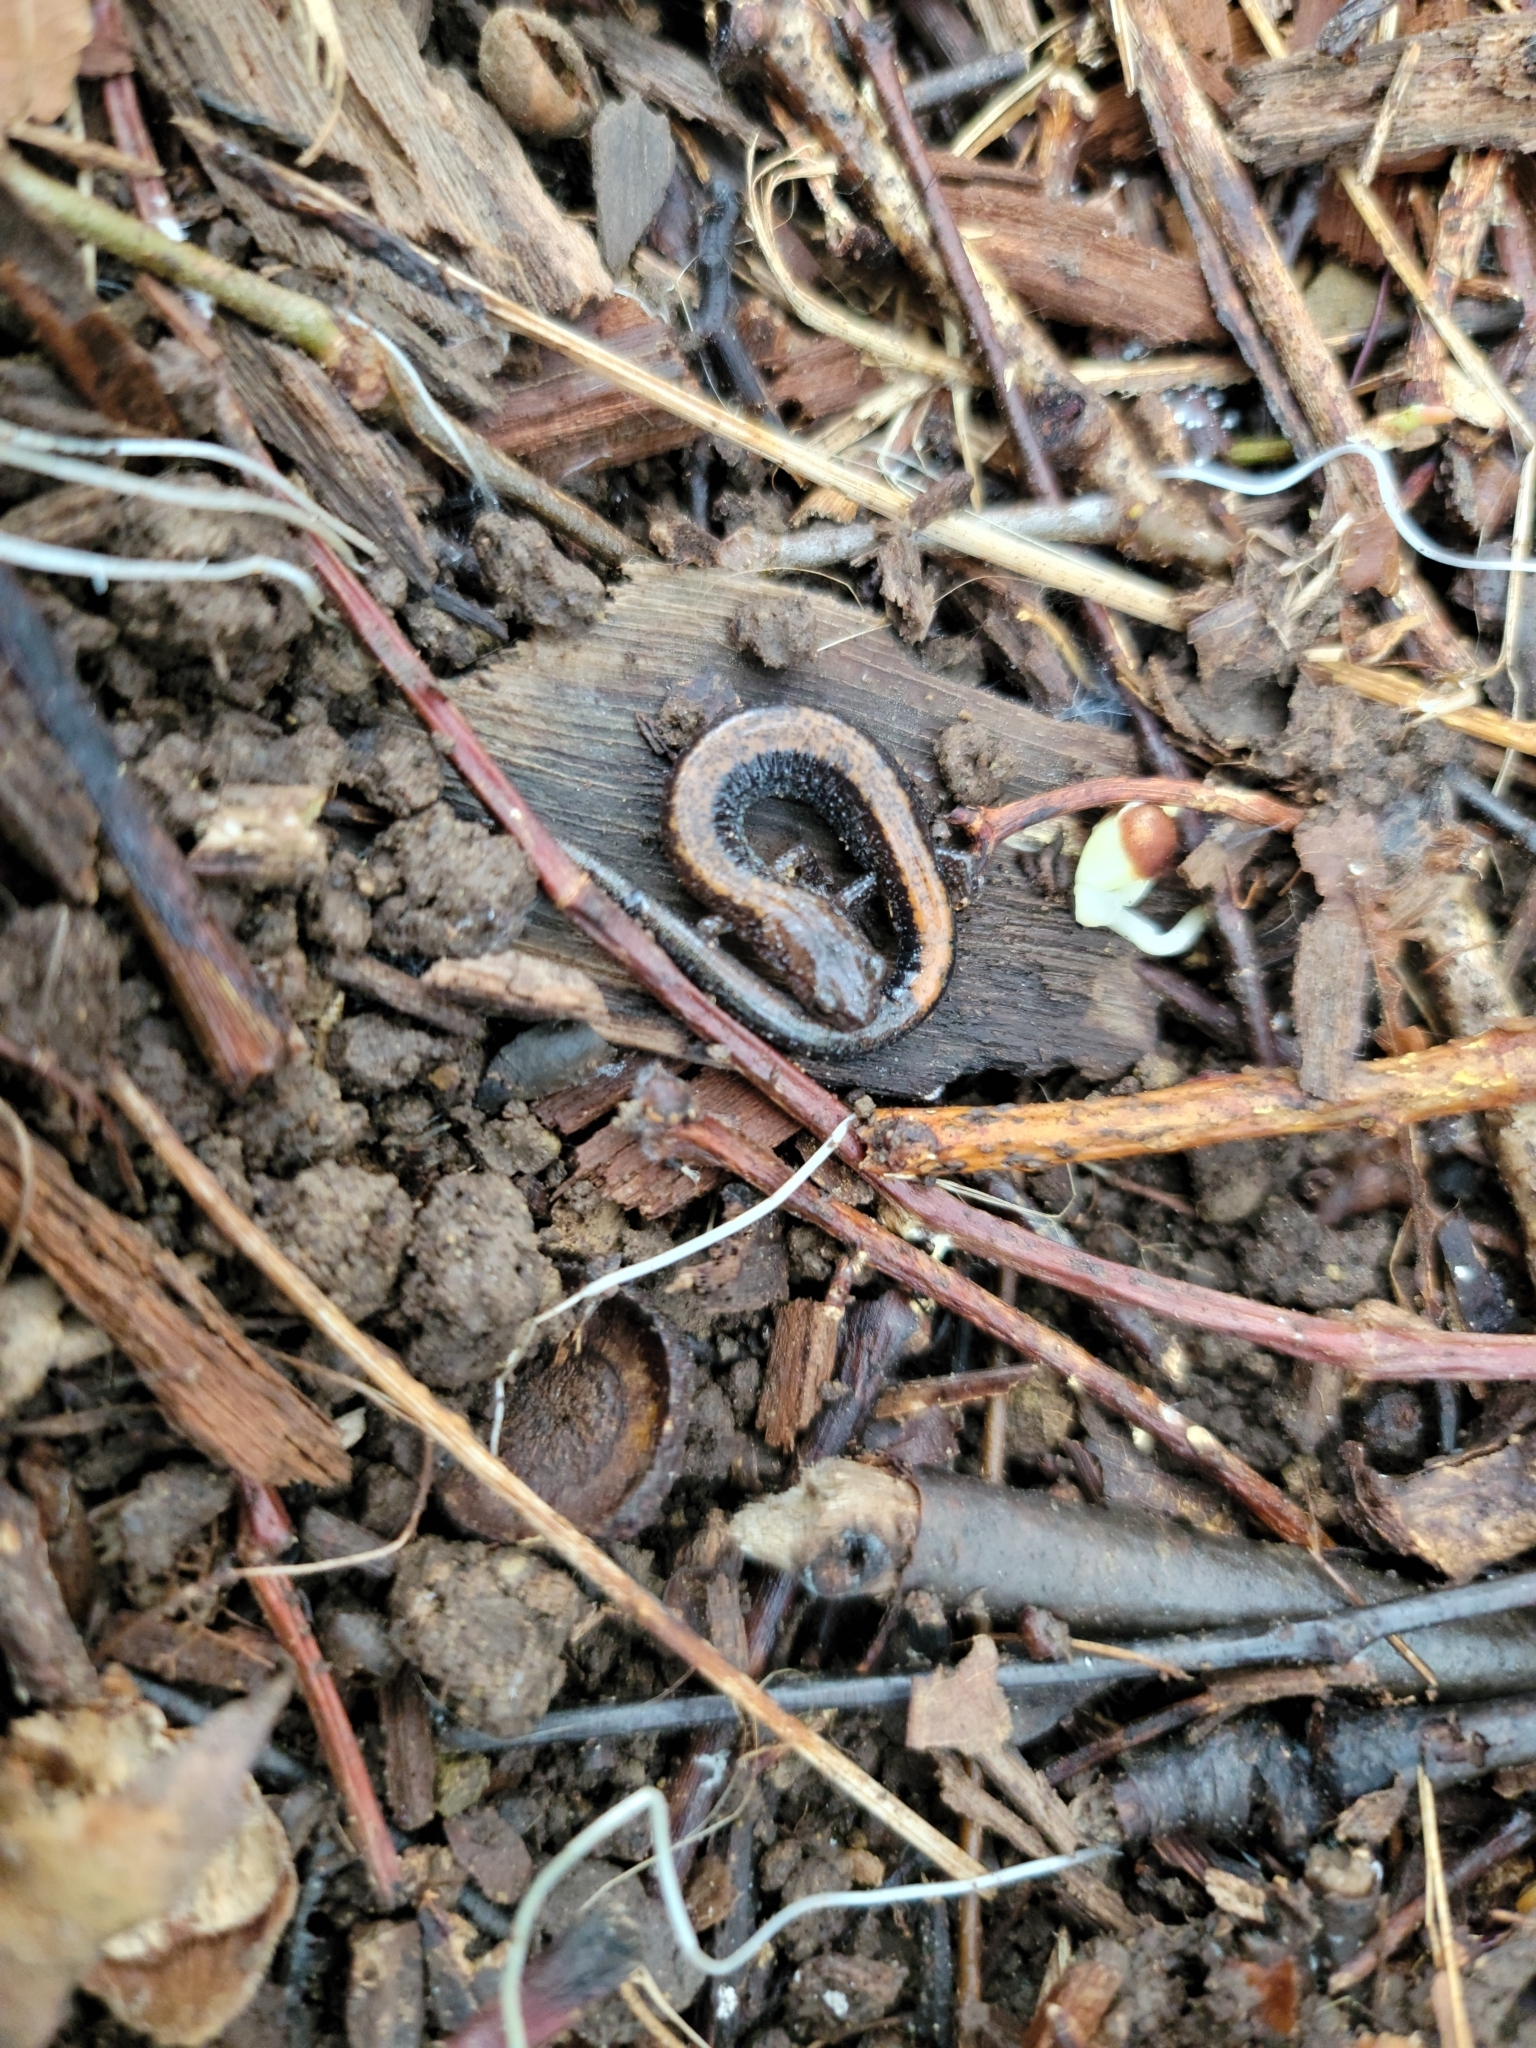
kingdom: Animalia
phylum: Chordata
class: Amphibia
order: Caudata
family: Plethodontidae
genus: Plethodon
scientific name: Plethodon cinereus
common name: Redback salamander
